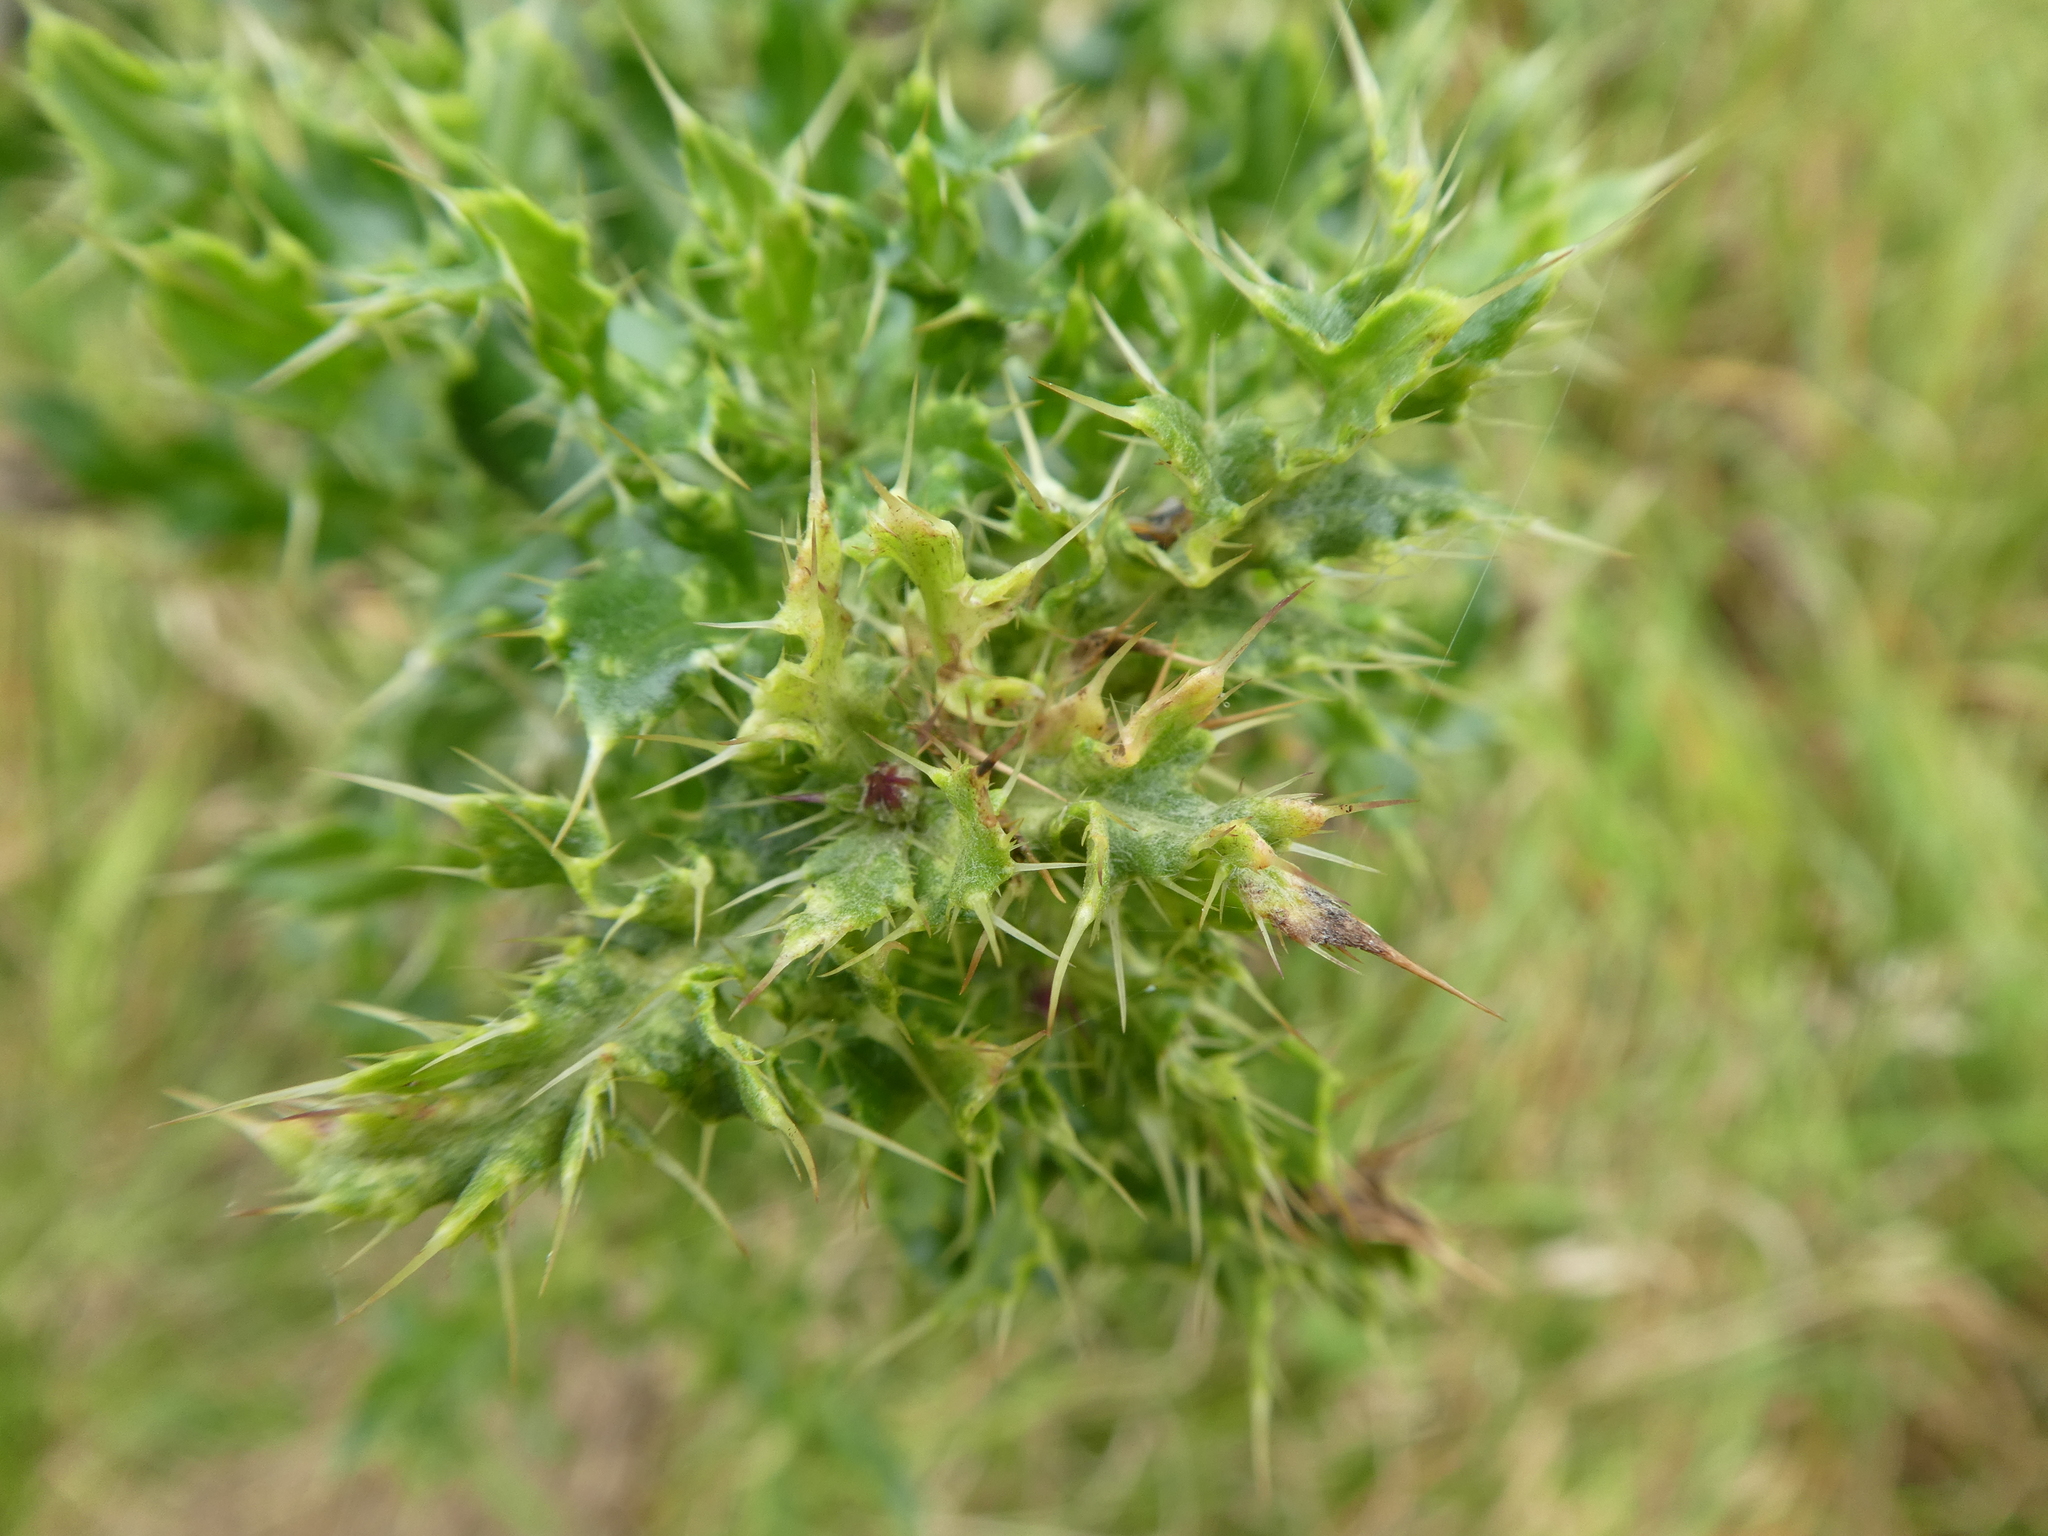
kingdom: Plantae
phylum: Tracheophyta
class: Magnoliopsida
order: Asterales
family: Asteraceae
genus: Cirsium
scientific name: Cirsium arvense
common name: Creeping thistle
